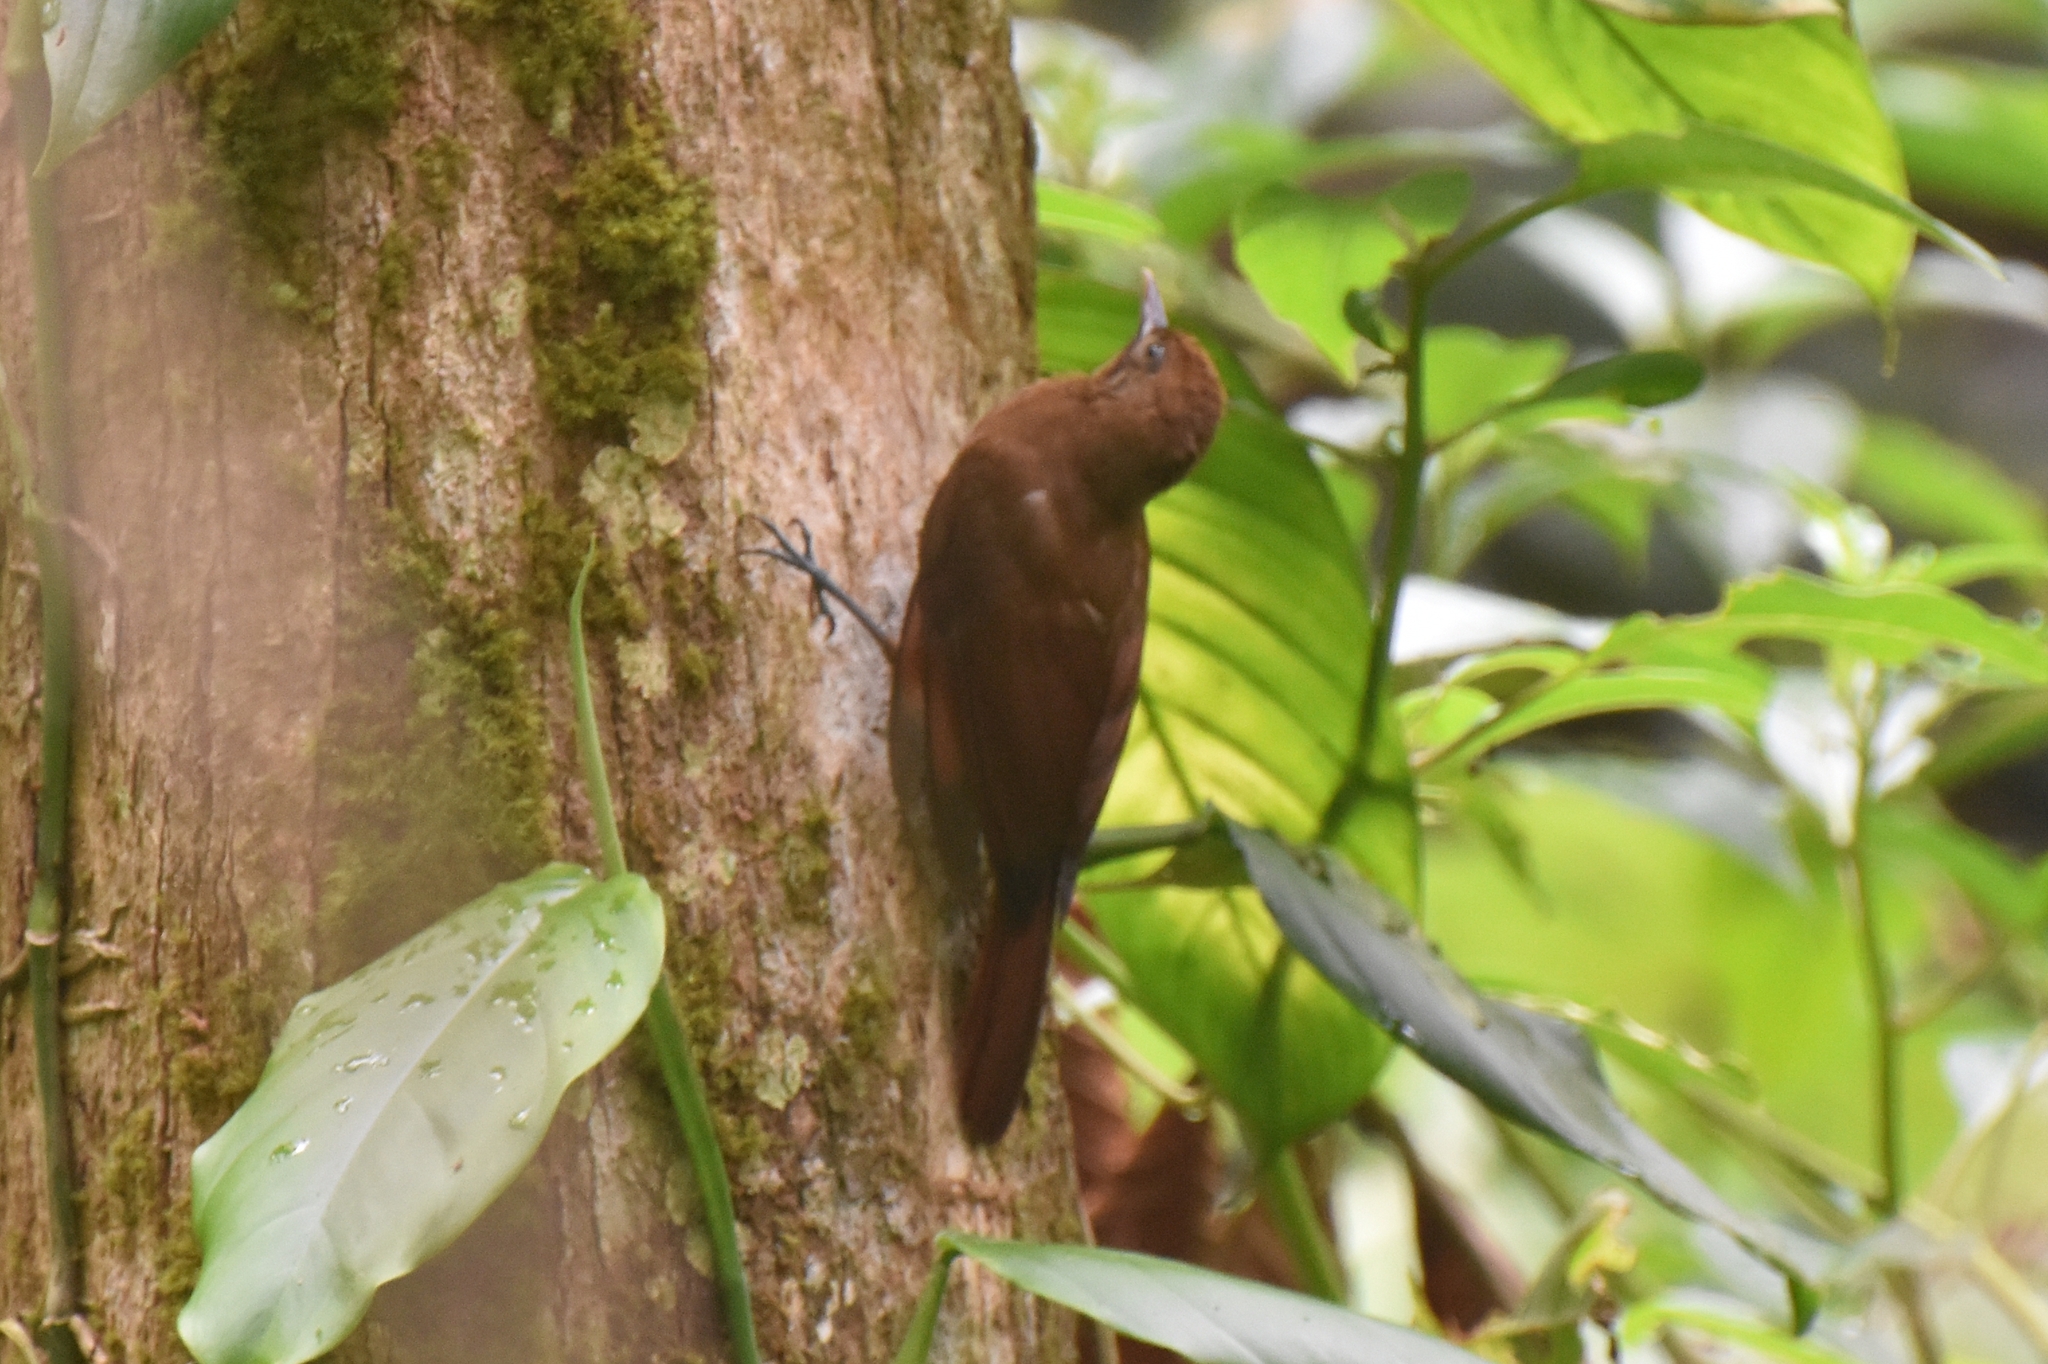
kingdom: Animalia
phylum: Chordata
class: Aves
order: Passeriformes
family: Furnariidae
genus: Dendrocincla
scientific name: Dendrocincla fuliginosa
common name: Plain-brown woodcreeper
